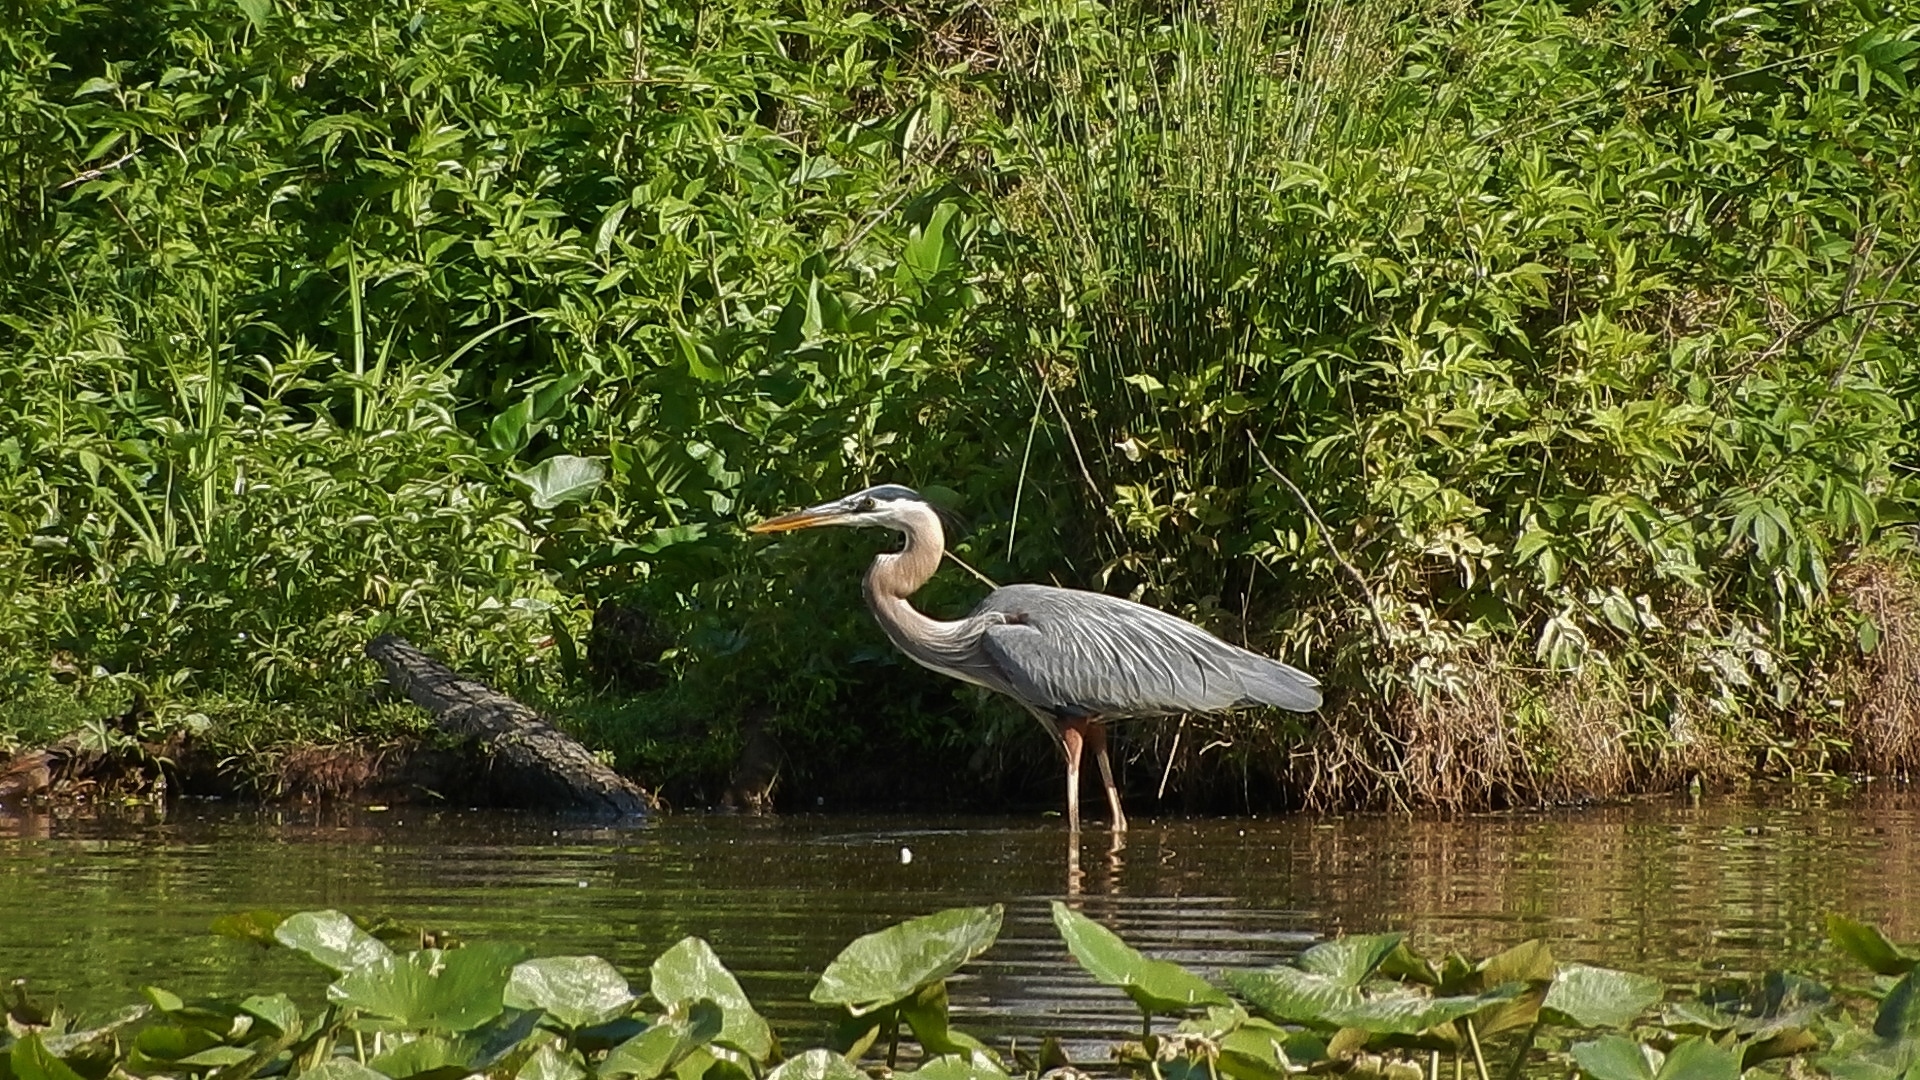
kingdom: Animalia
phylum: Chordata
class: Aves
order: Pelecaniformes
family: Ardeidae
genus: Ardea
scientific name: Ardea herodias
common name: Great blue heron
